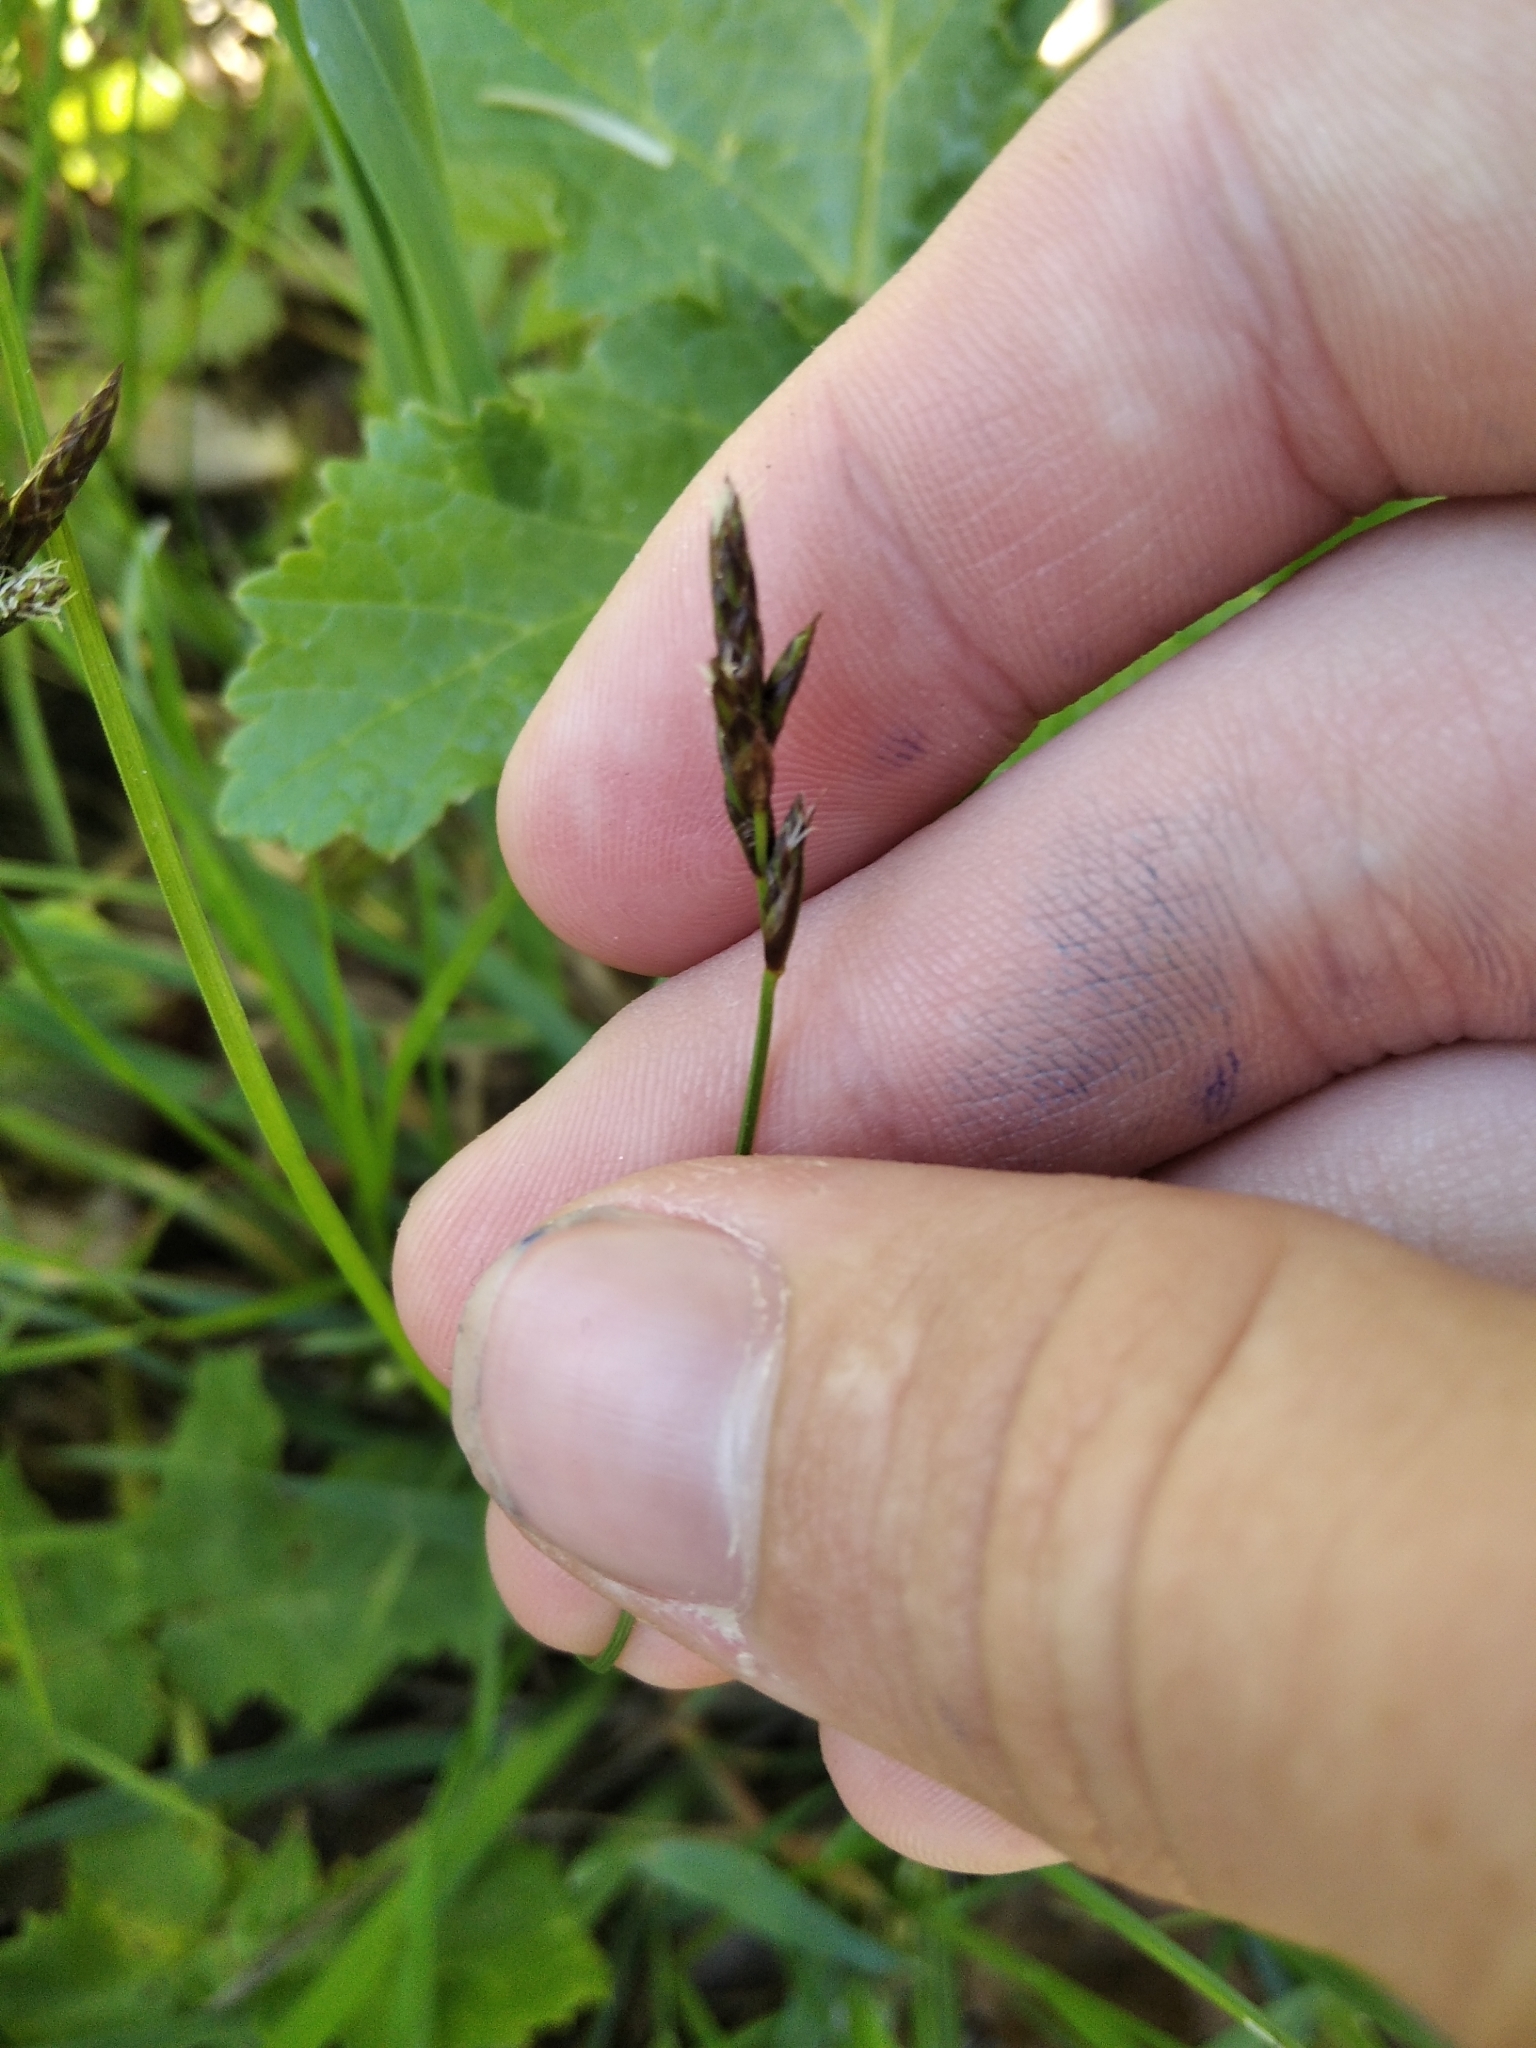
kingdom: Plantae
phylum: Tracheophyta
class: Liliopsida
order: Poales
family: Cyperaceae
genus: Carex
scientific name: Carex praecox
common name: Early sedge
